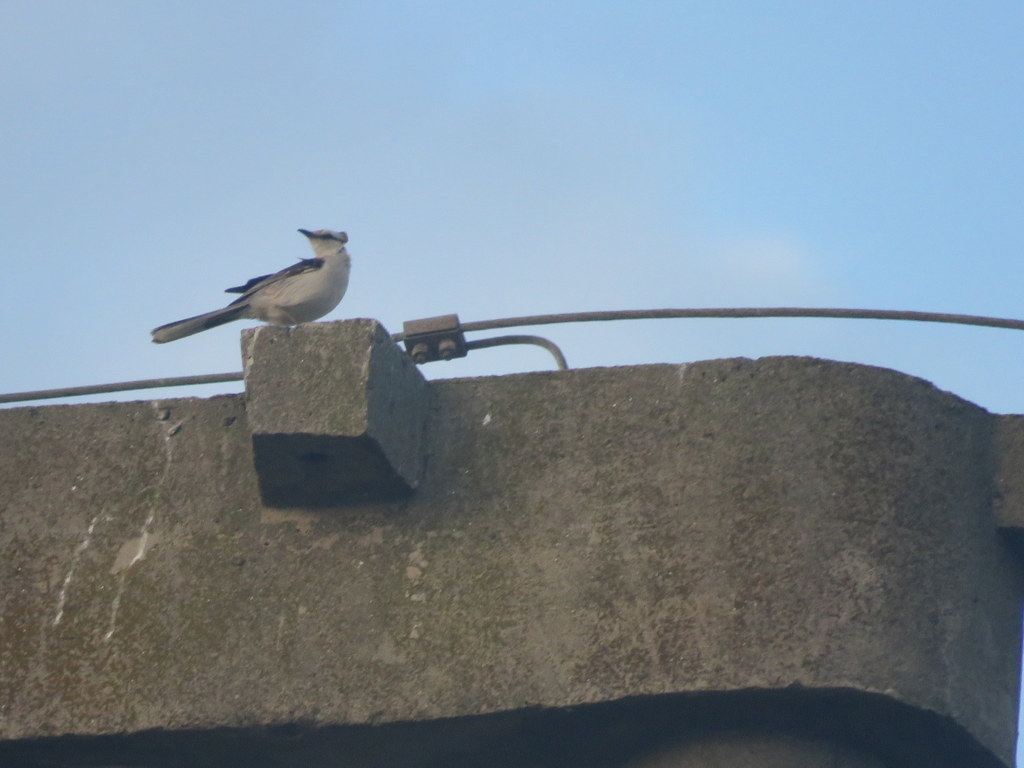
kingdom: Animalia
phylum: Chordata
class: Aves
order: Passeriformes
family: Mimidae
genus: Mimus
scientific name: Mimus saturninus
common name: Chalk-browed mockingbird
